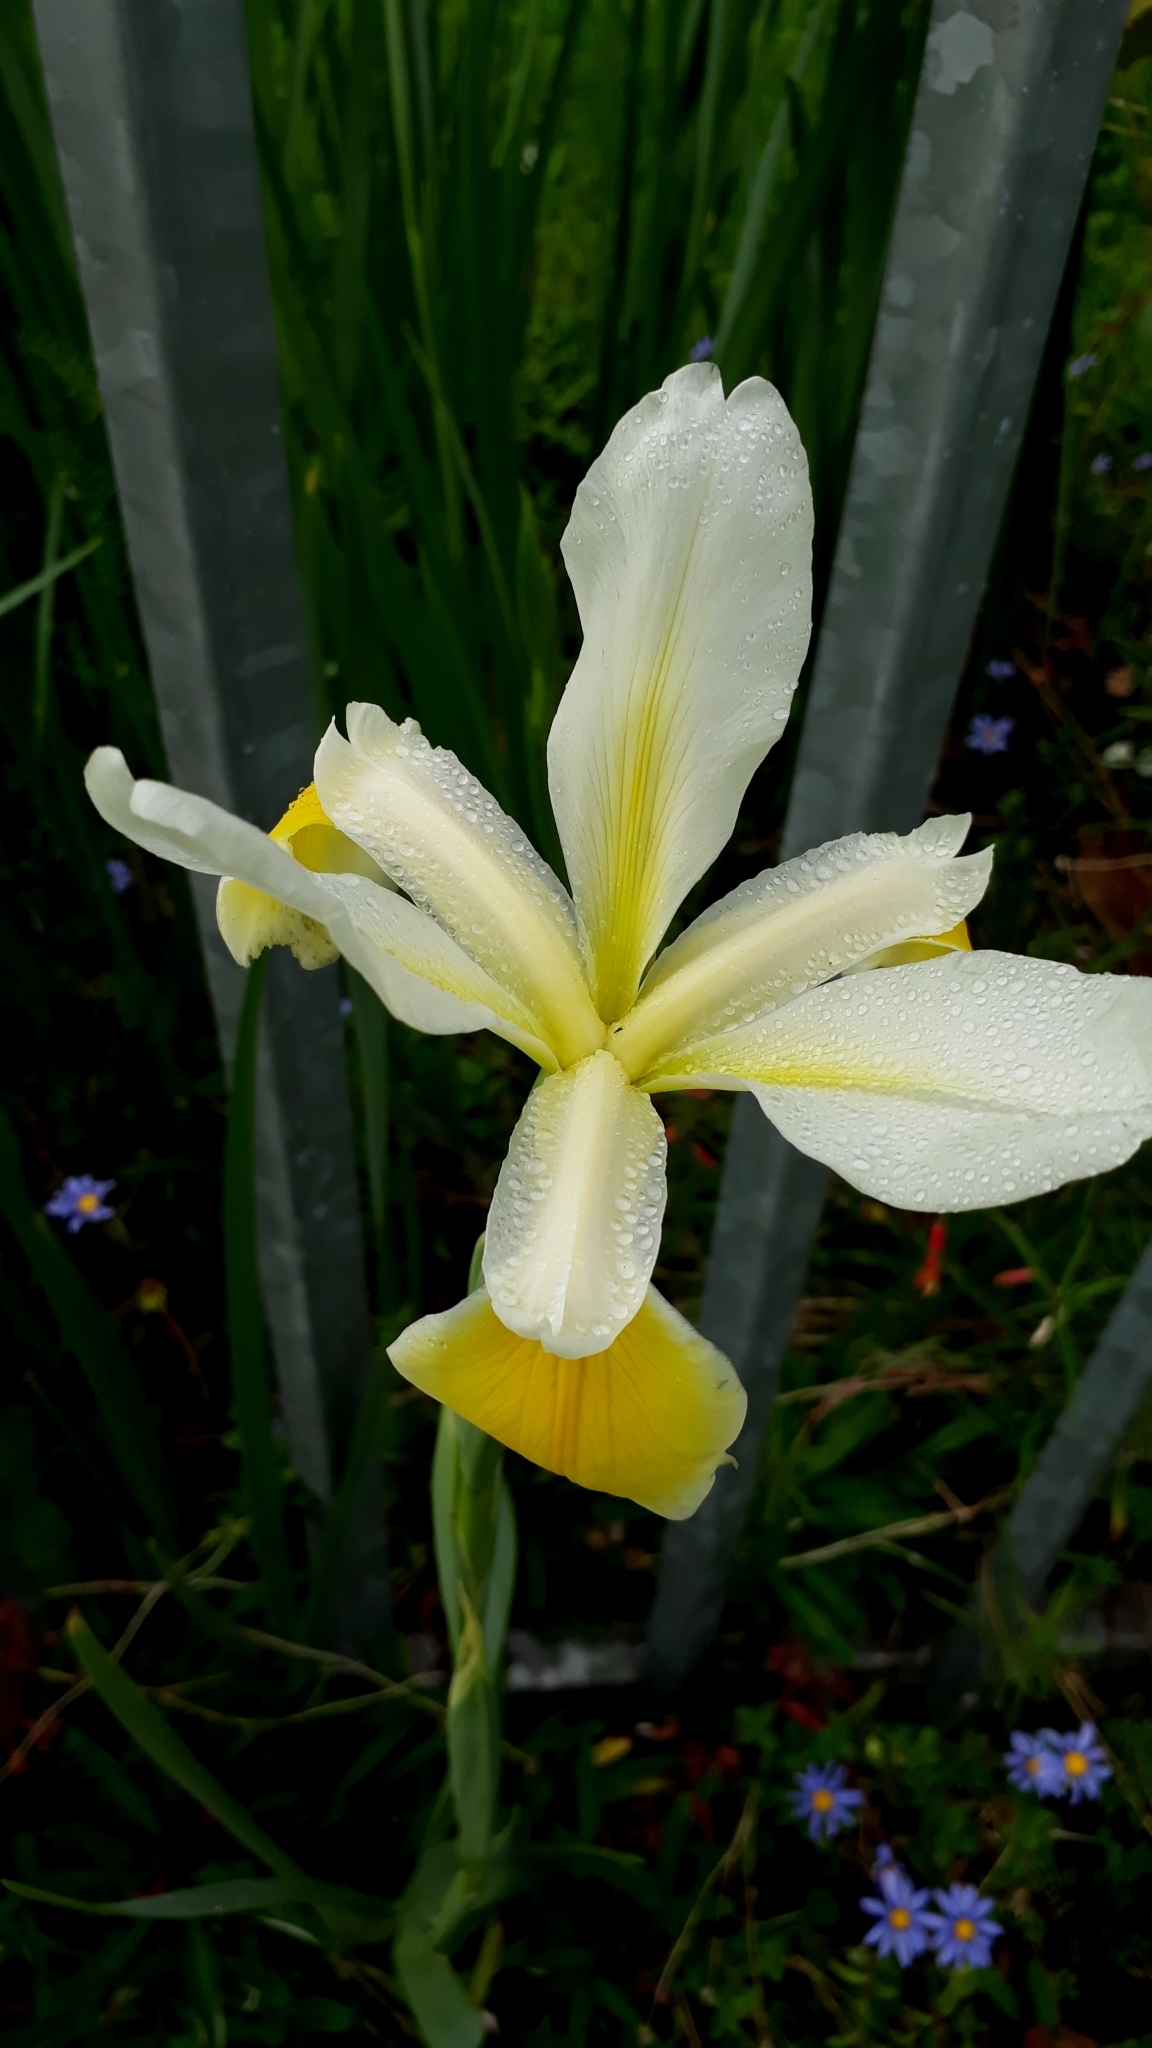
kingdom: Plantae
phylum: Tracheophyta
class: Liliopsida
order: Asparagales
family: Iridaceae
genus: Iris
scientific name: Iris orientalis
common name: Turkish iris
